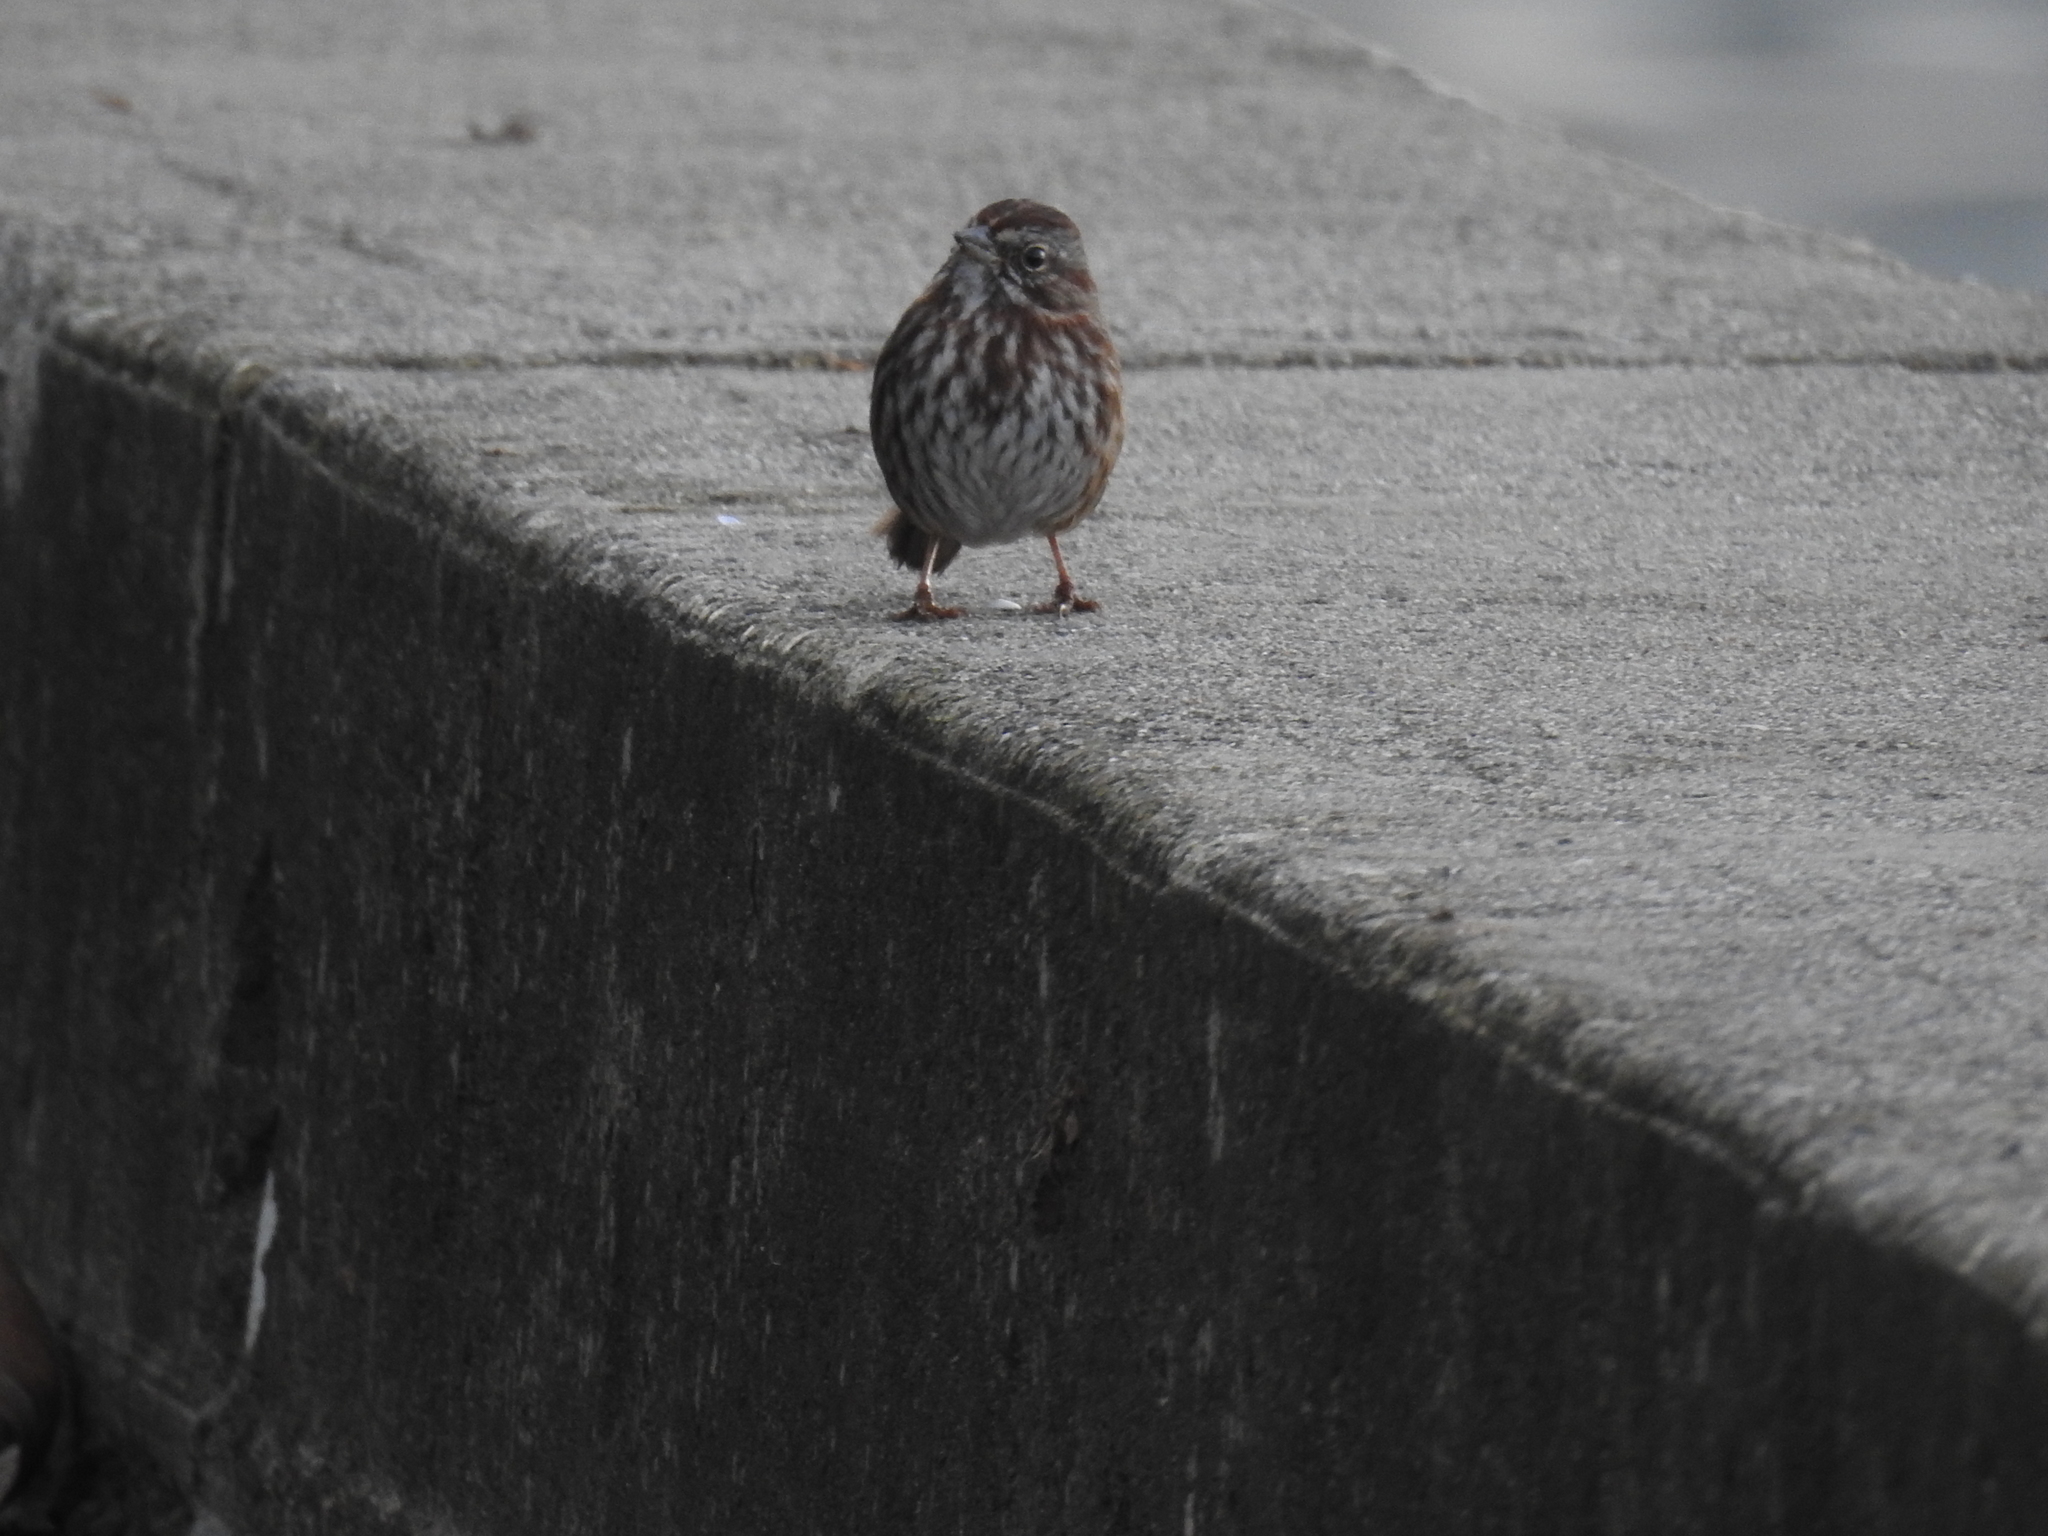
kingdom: Animalia
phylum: Chordata
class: Aves
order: Passeriformes
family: Passerellidae
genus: Melospiza
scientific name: Melospiza melodia
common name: Song sparrow
